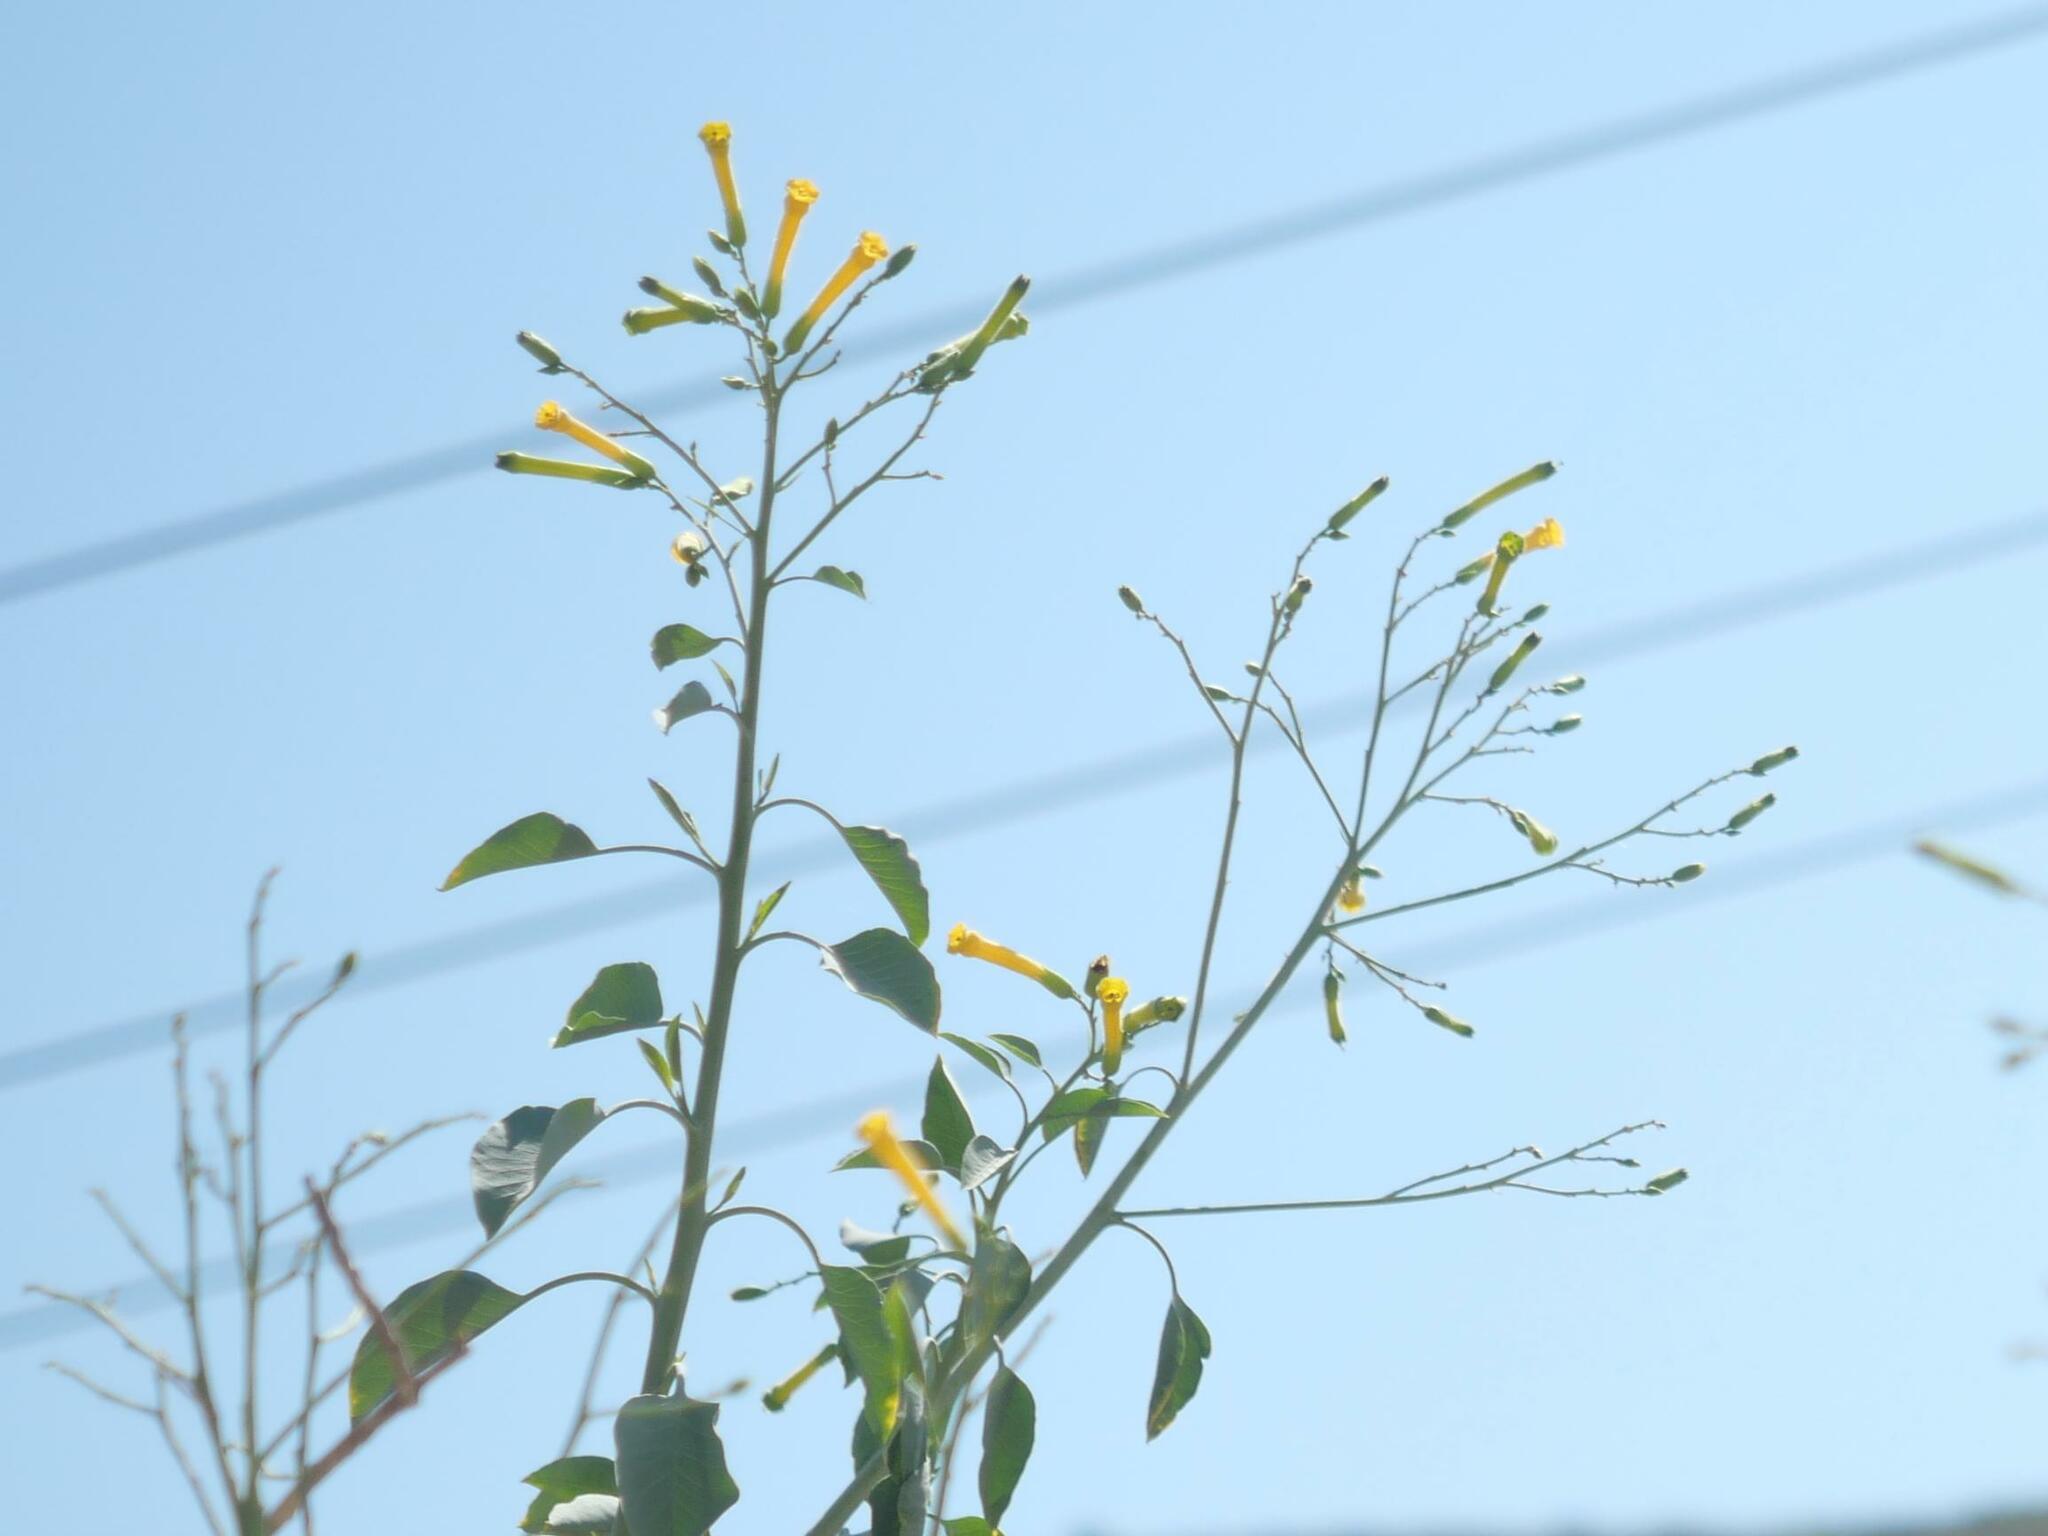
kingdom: Plantae
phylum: Tracheophyta
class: Magnoliopsida
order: Solanales
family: Solanaceae
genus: Nicotiana
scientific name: Nicotiana glauca
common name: Tree tobacco
